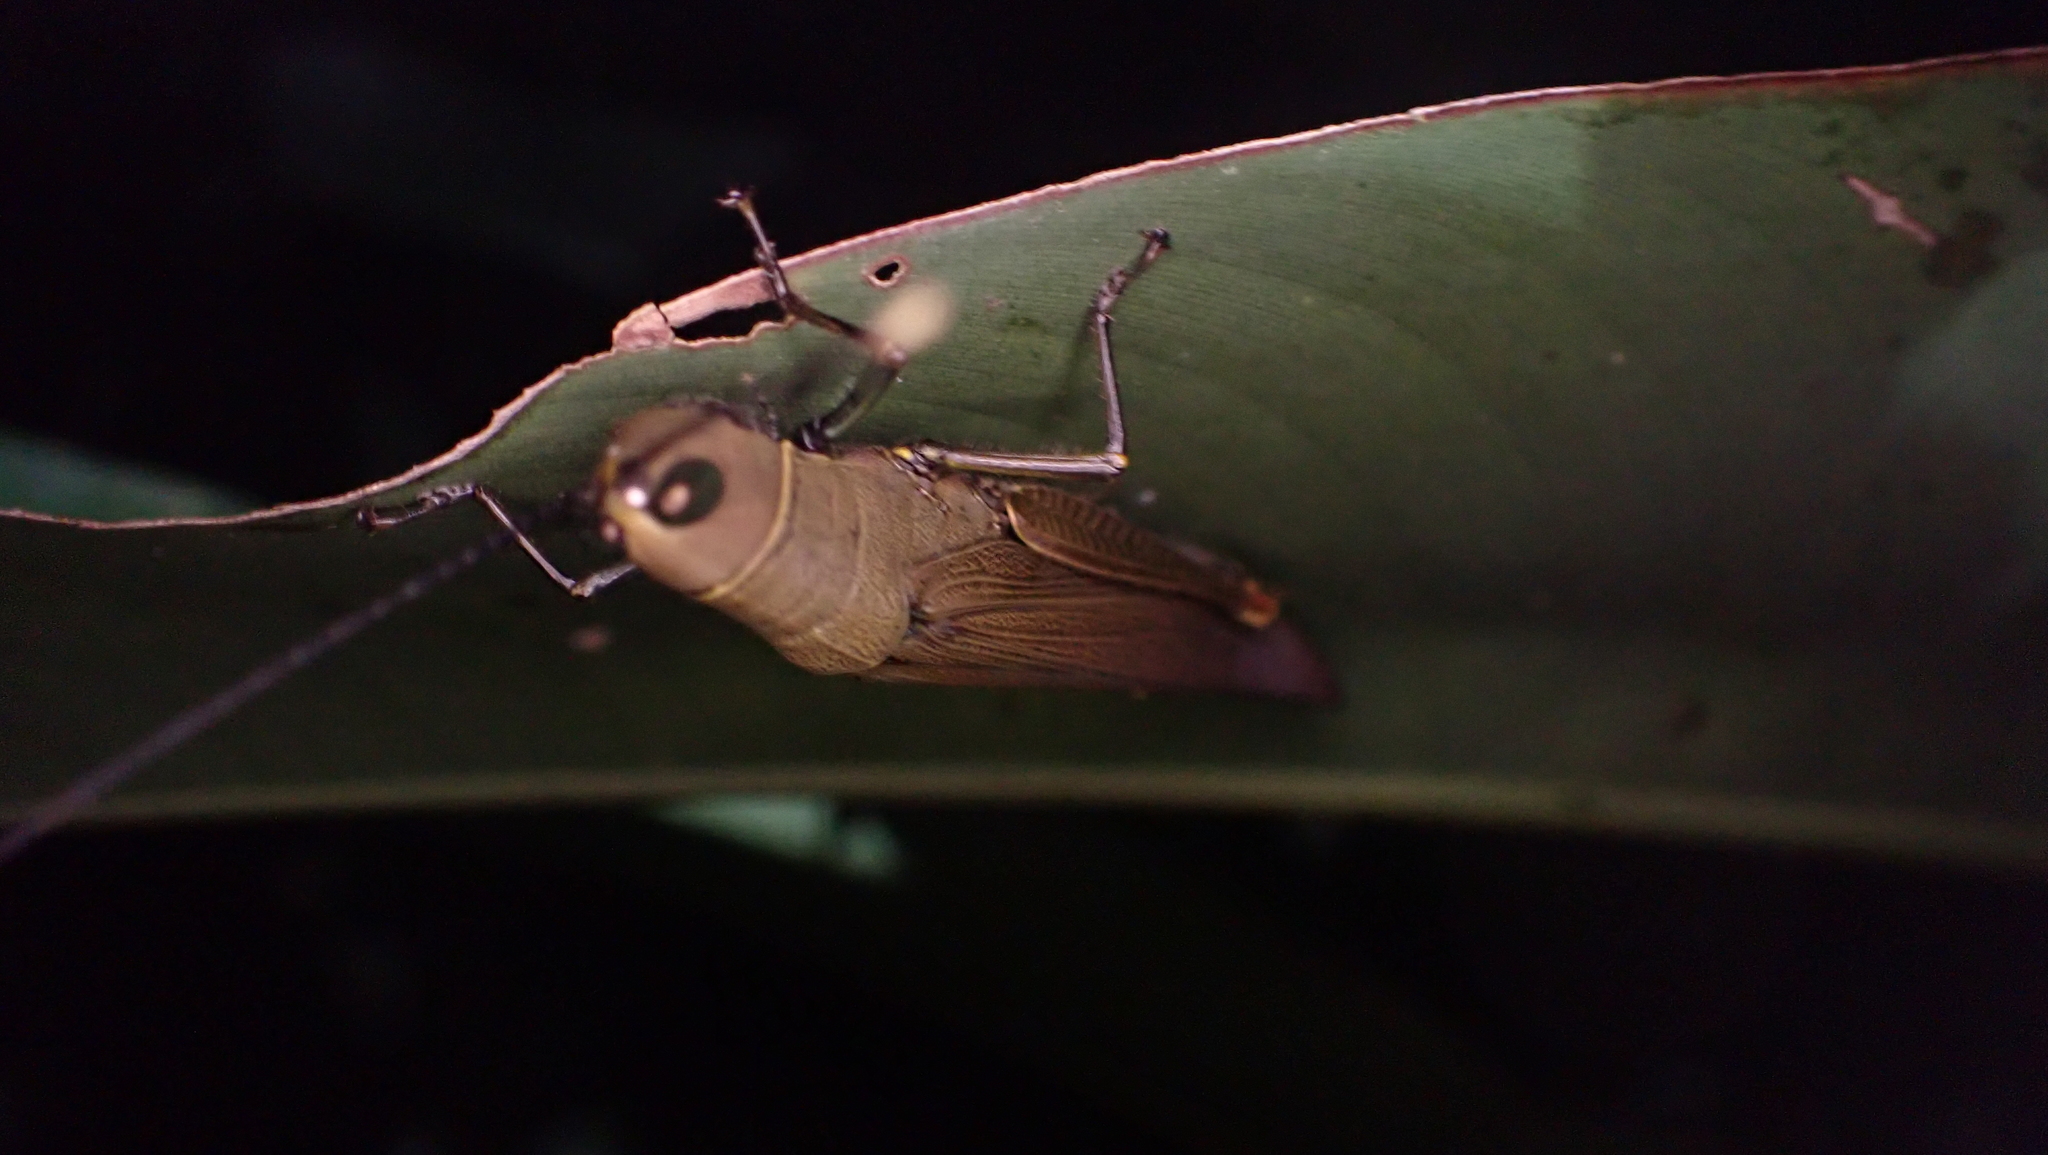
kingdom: Animalia
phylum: Arthropoda
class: Insecta
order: Orthoptera
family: Acrididae
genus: Copiocera
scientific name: Copiocera specularis
